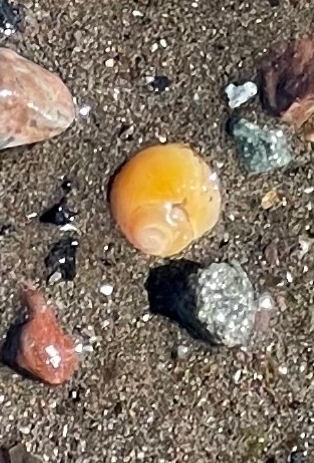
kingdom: Animalia
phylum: Mollusca
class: Gastropoda
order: Littorinimorpha
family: Littorinidae
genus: Littorina
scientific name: Littorina obtusata
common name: Flat periwinkle
